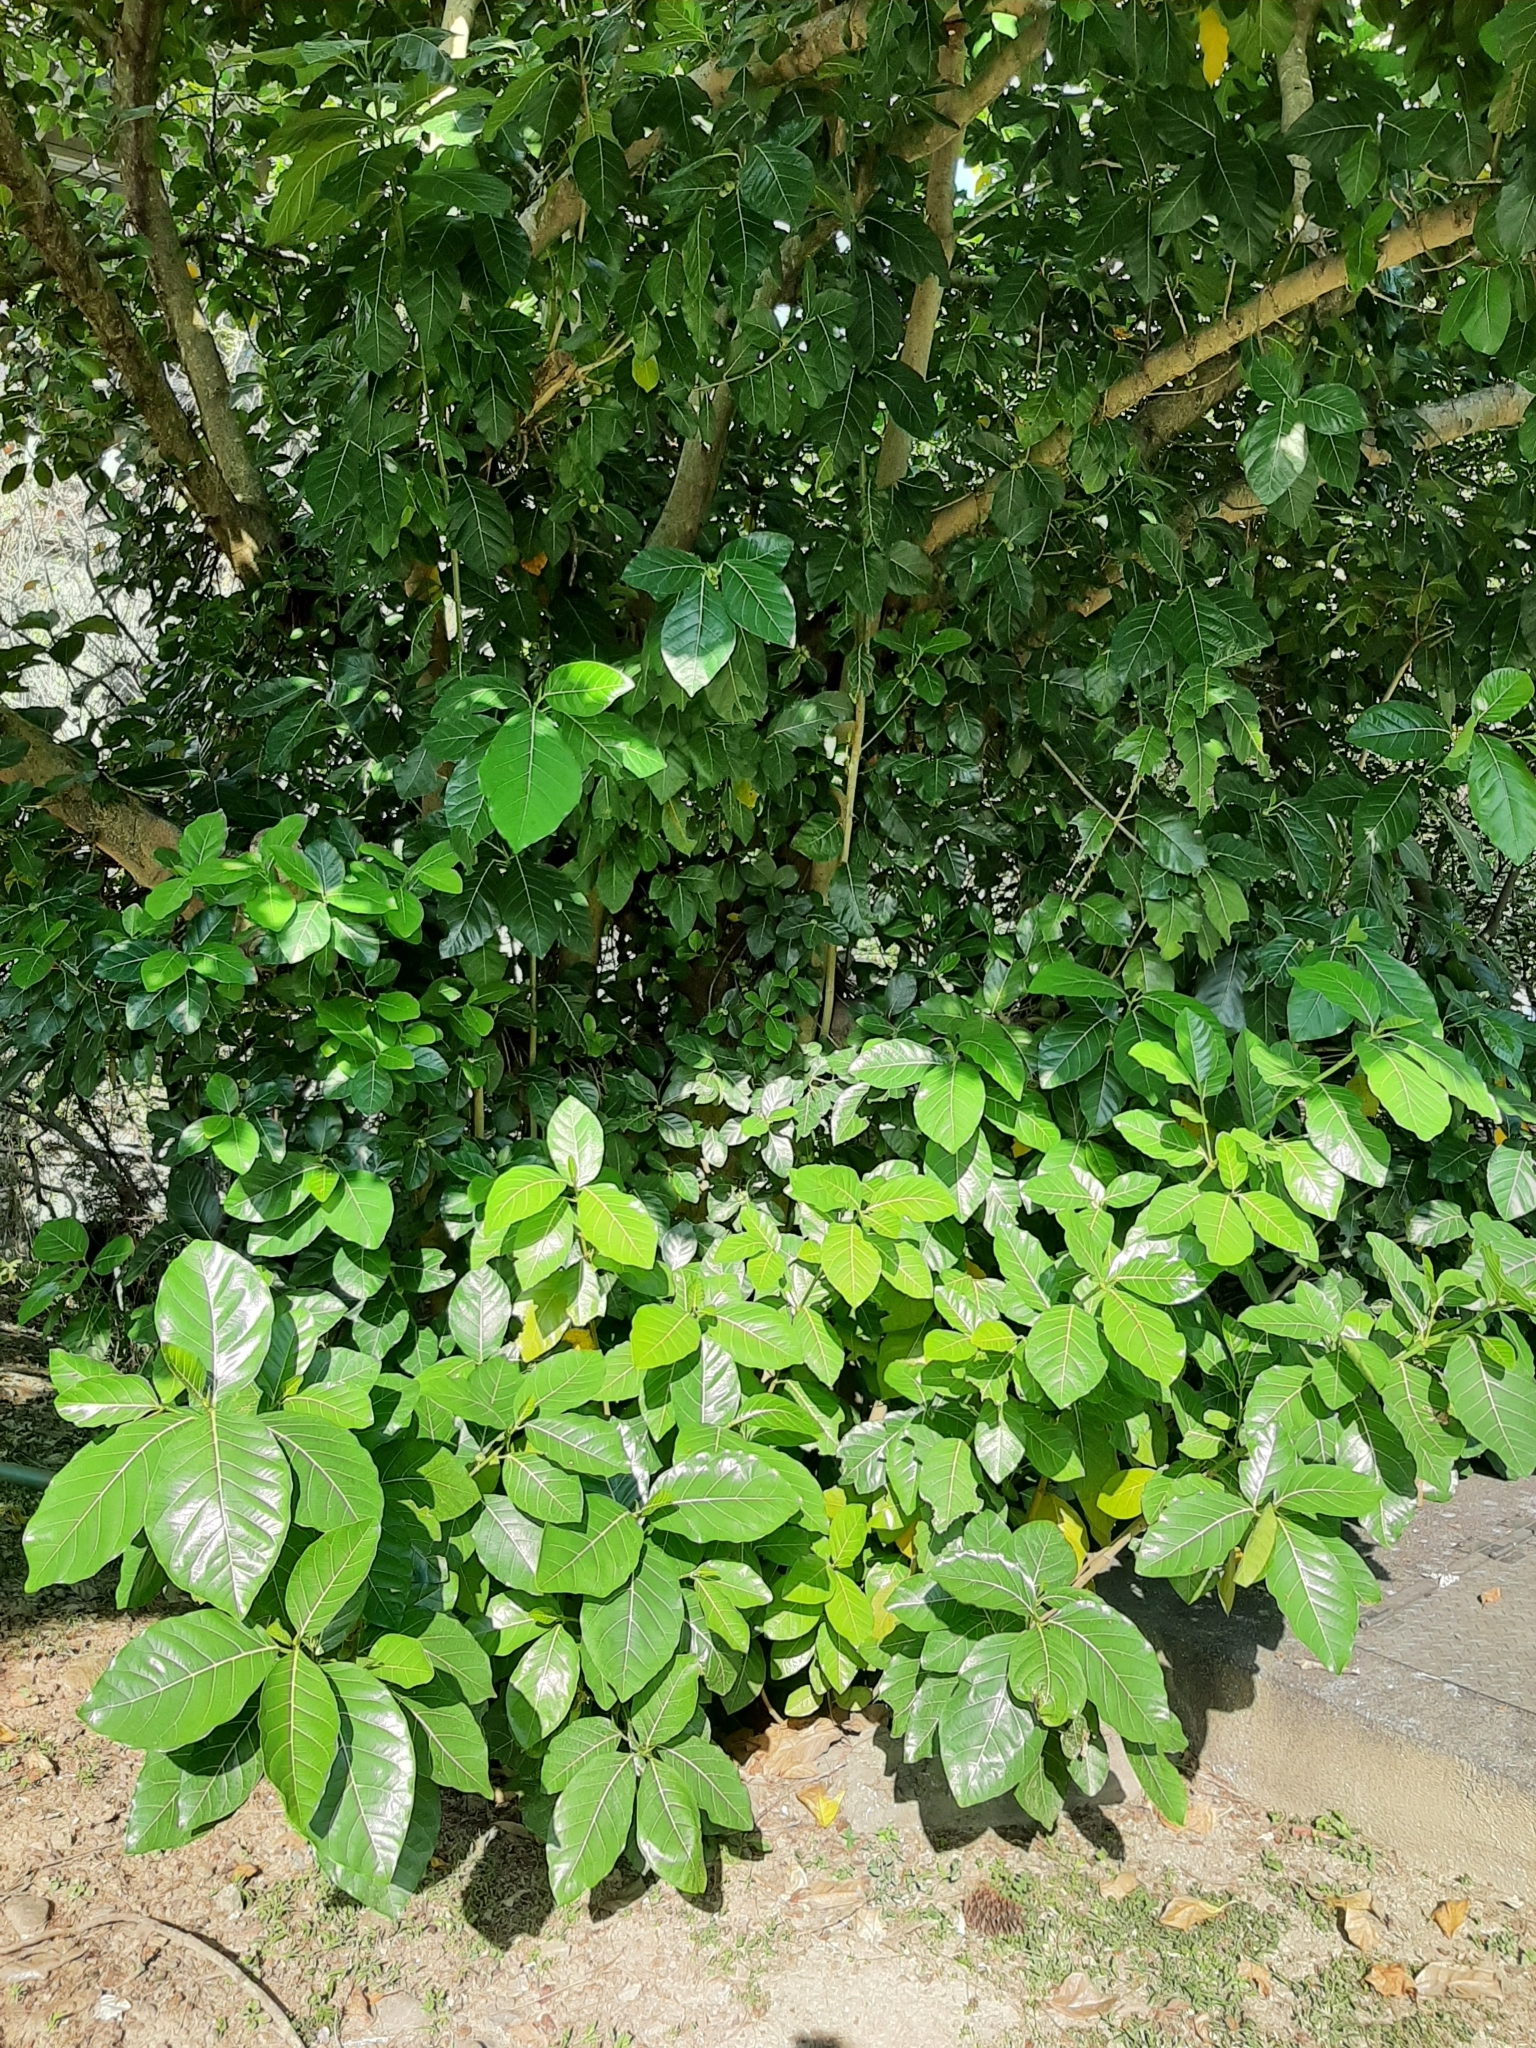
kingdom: Plantae
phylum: Tracheophyta
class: Magnoliopsida
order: Rosales
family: Moraceae
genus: Ficus
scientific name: Ficus septica
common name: Septic fig
